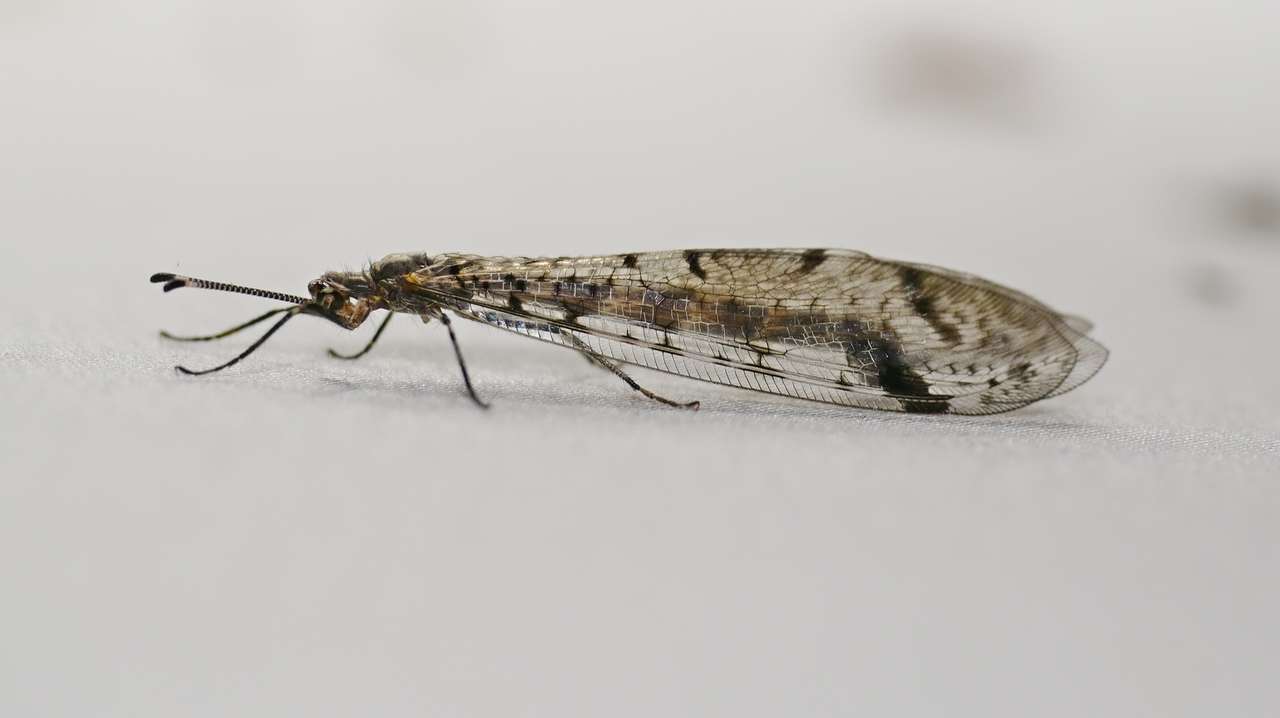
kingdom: Animalia
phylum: Arthropoda
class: Insecta
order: Neuroptera
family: Myrmeleontidae
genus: Dendroleon
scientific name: Dendroleon longipennis
